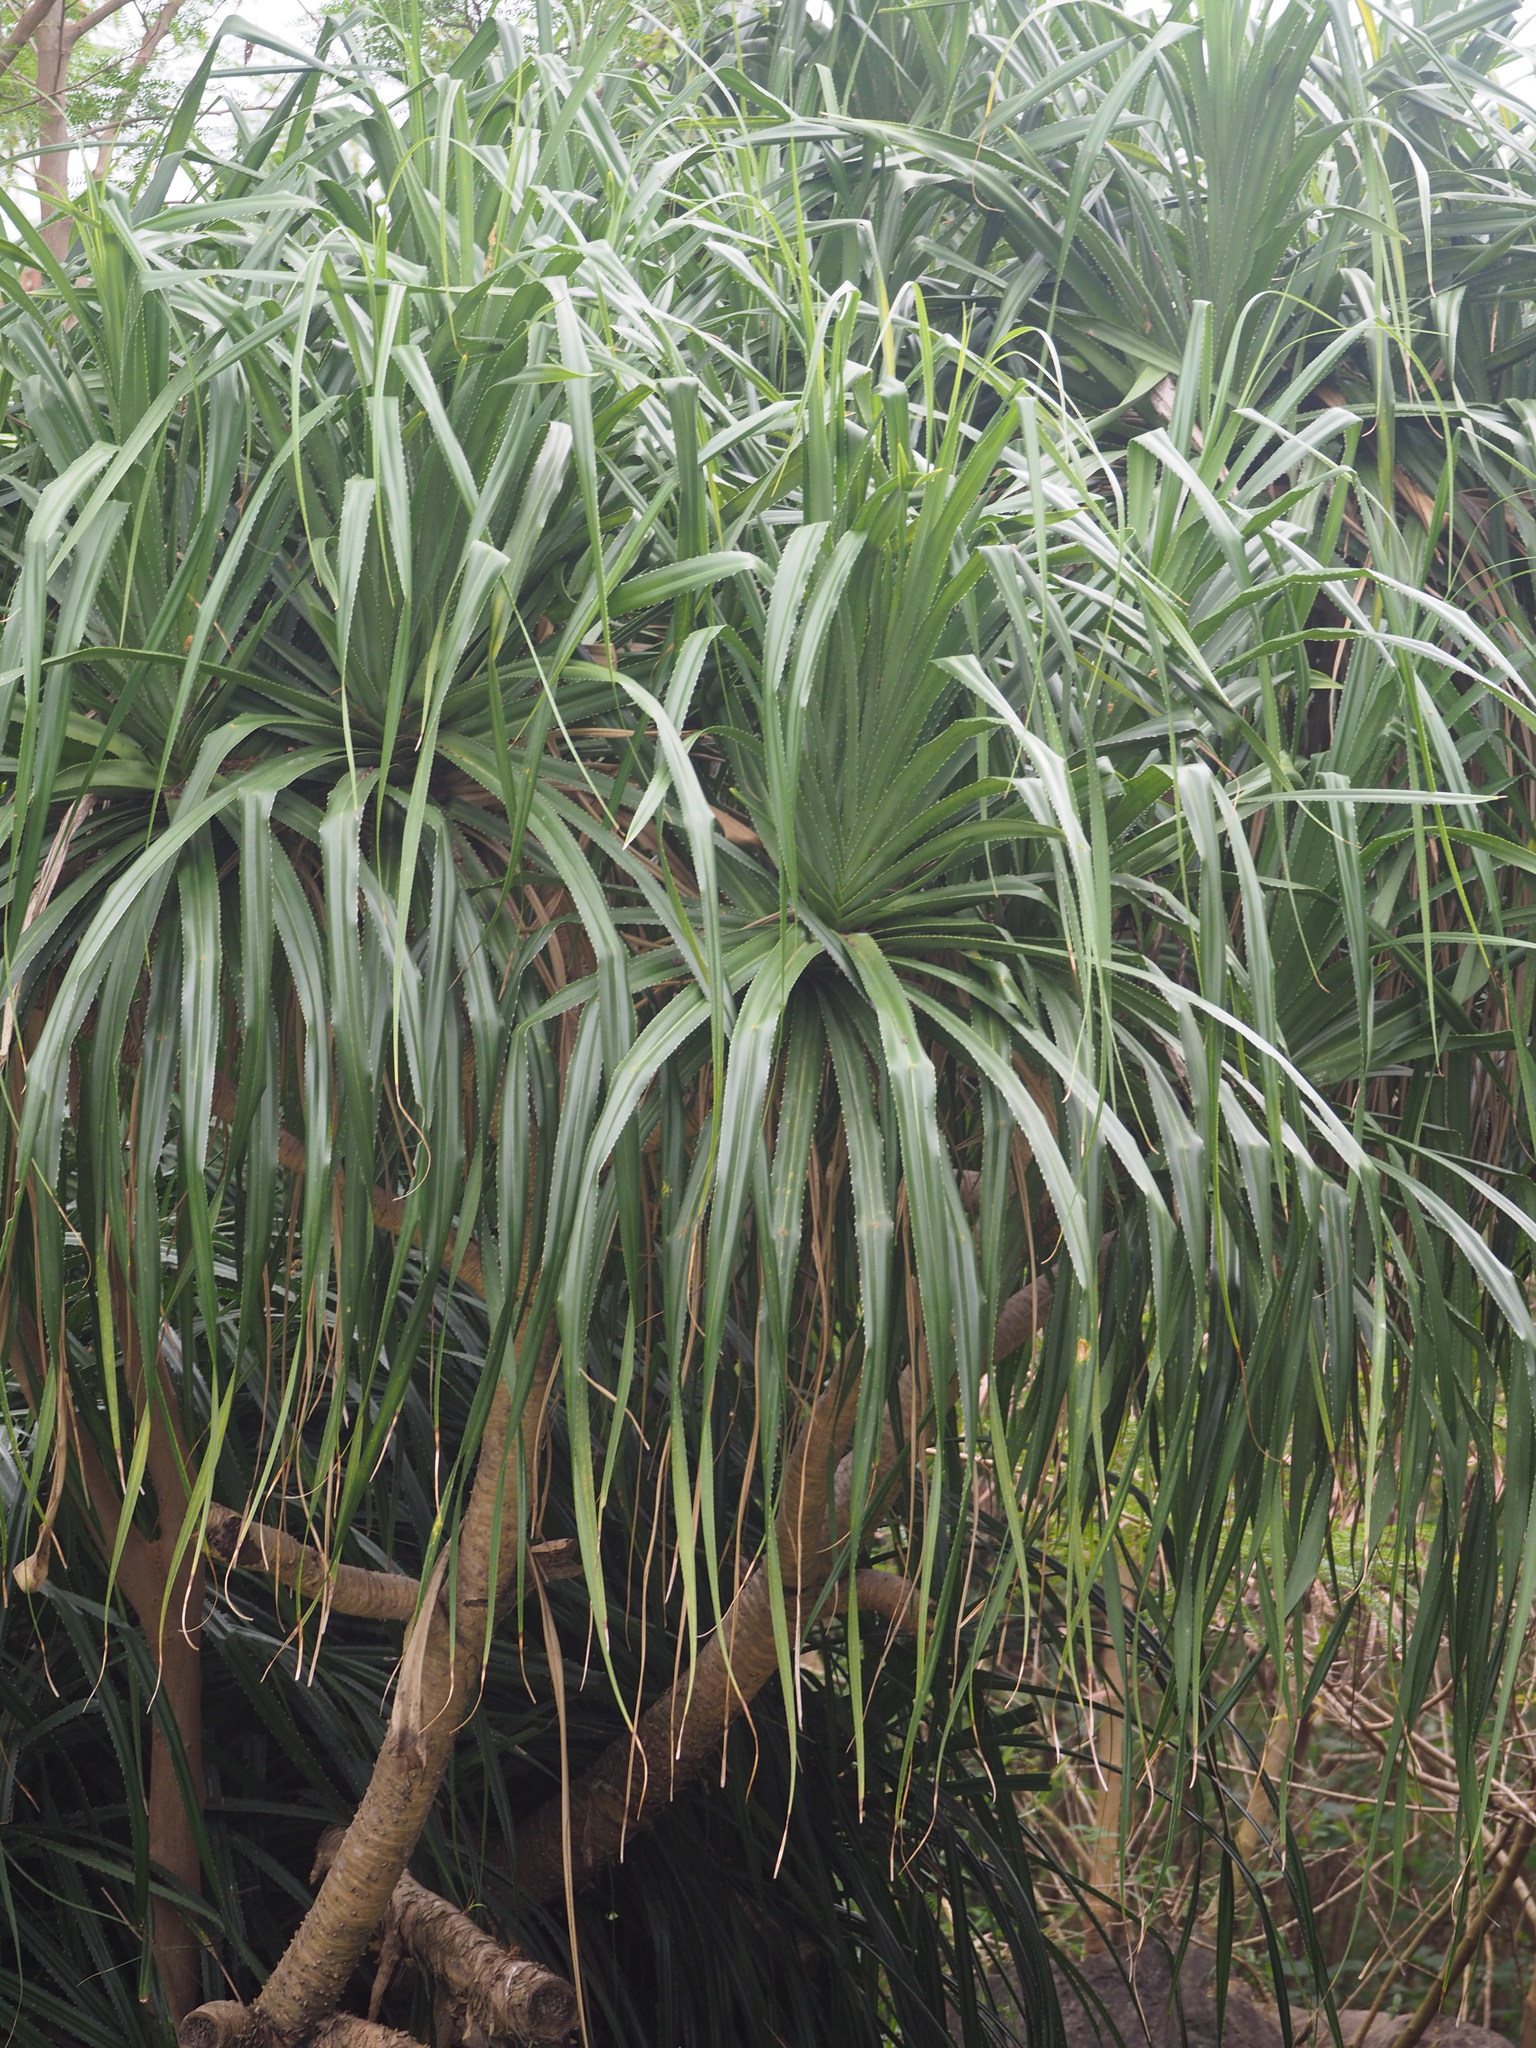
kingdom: Plantae
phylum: Tracheophyta
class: Liliopsida
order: Pandanales
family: Pandanaceae
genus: Pandanus
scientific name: Pandanus odorifer
